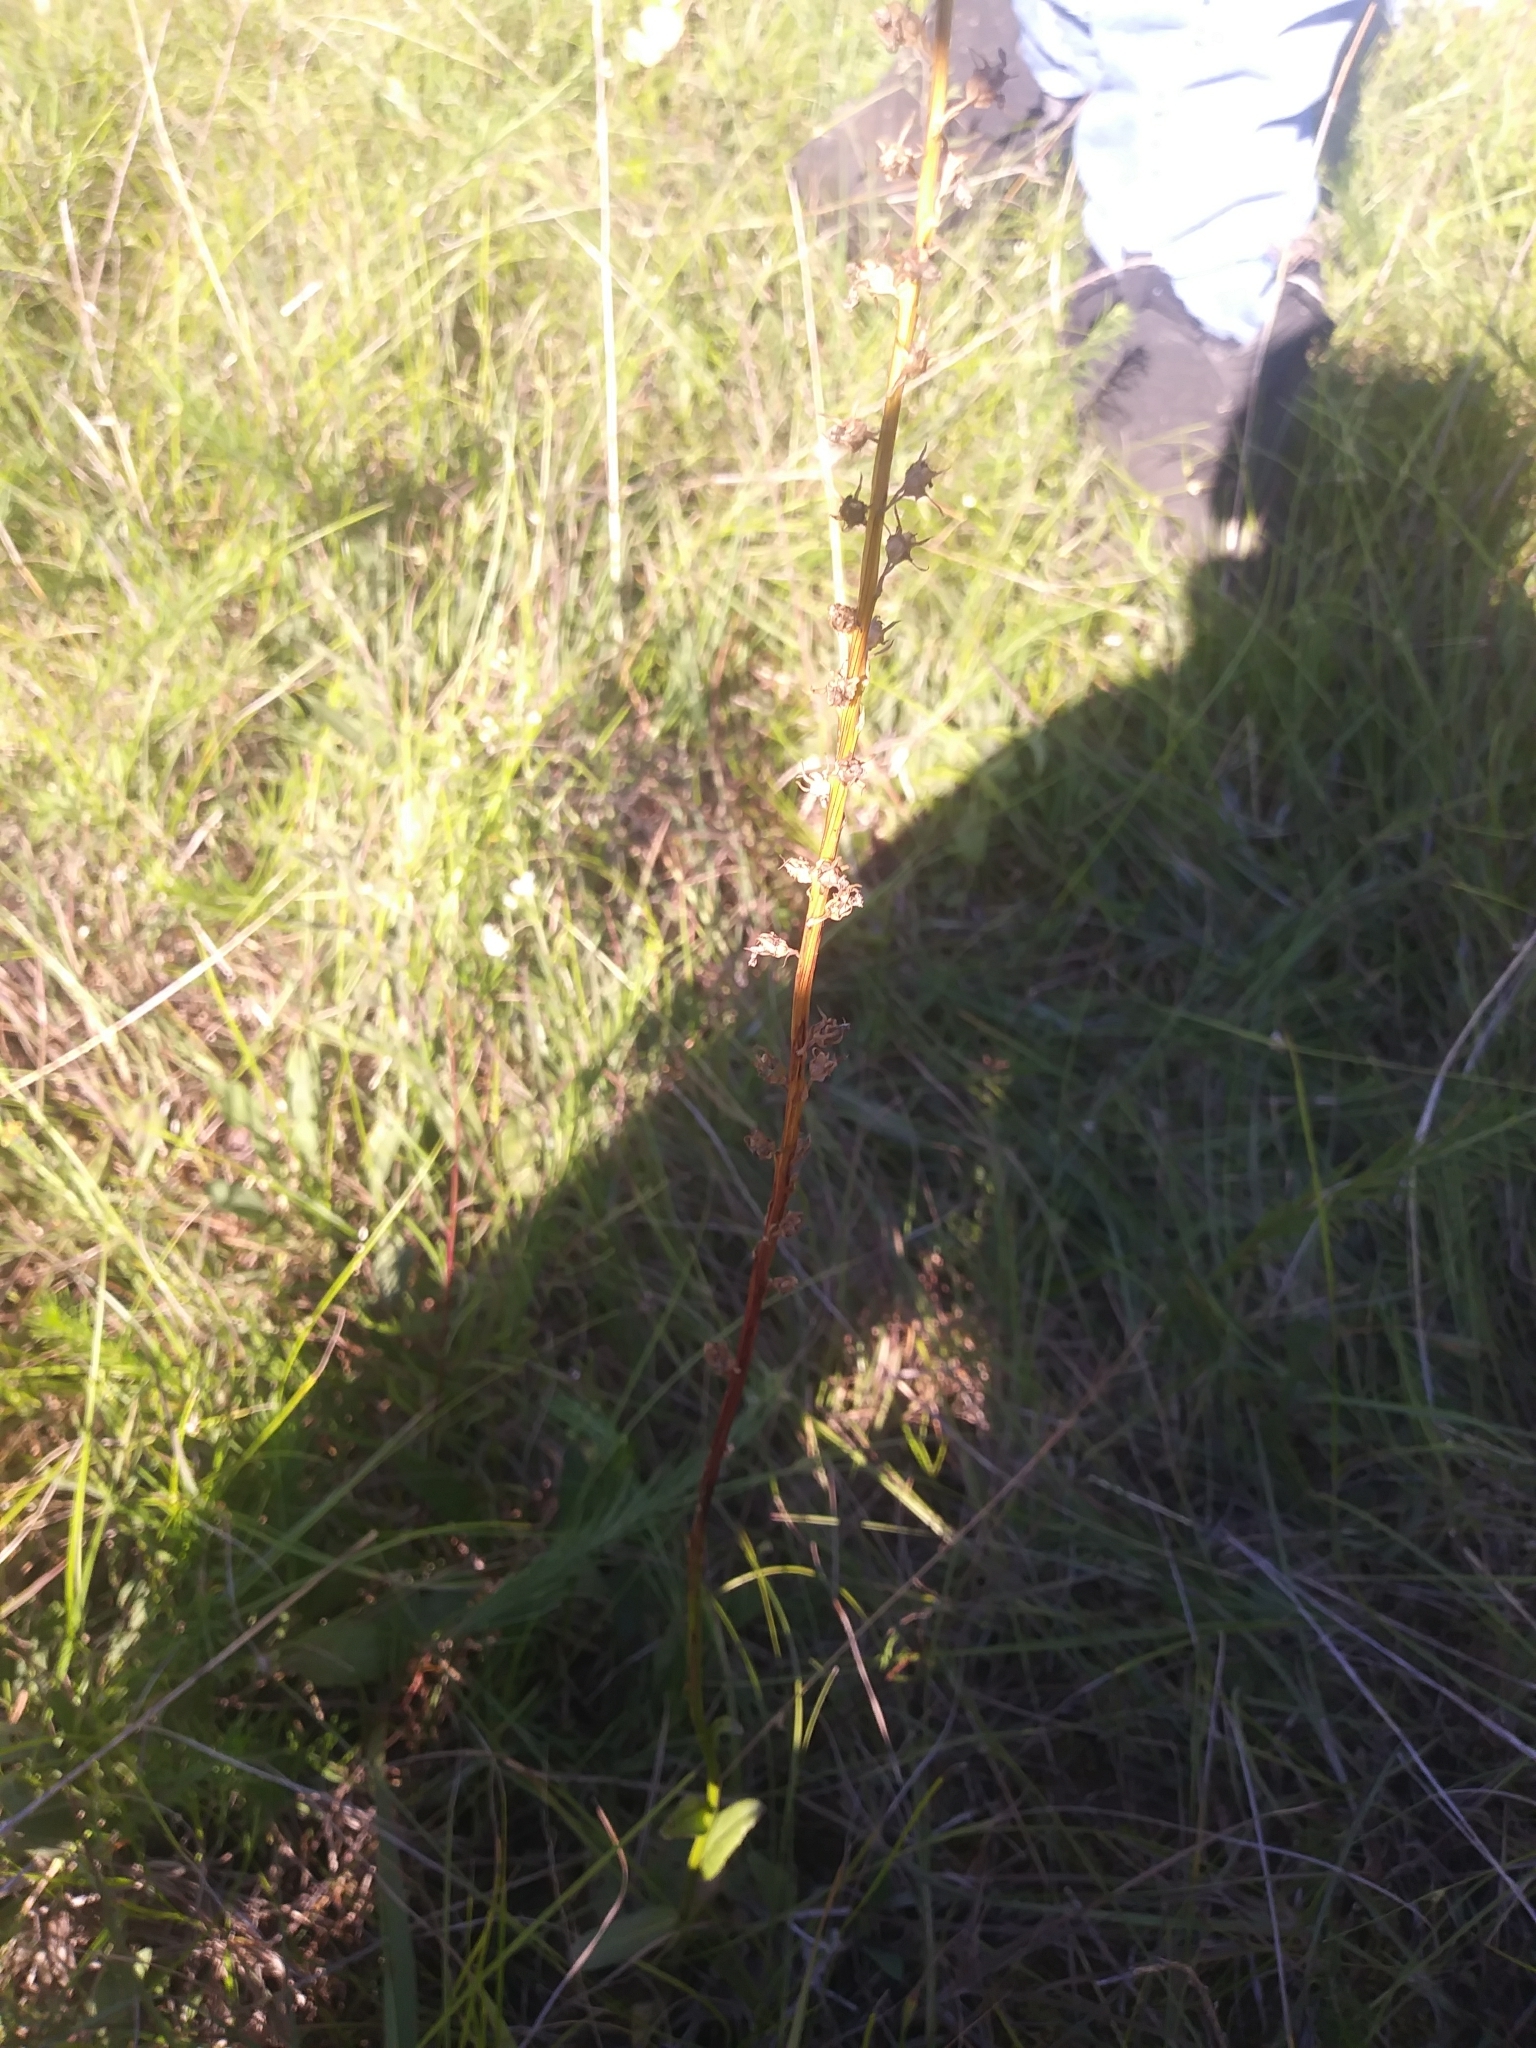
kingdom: Plantae
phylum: Tracheophyta
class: Magnoliopsida
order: Asterales
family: Campanulaceae
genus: Lobelia
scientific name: Lobelia spicata
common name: Pale-spike lobelia
